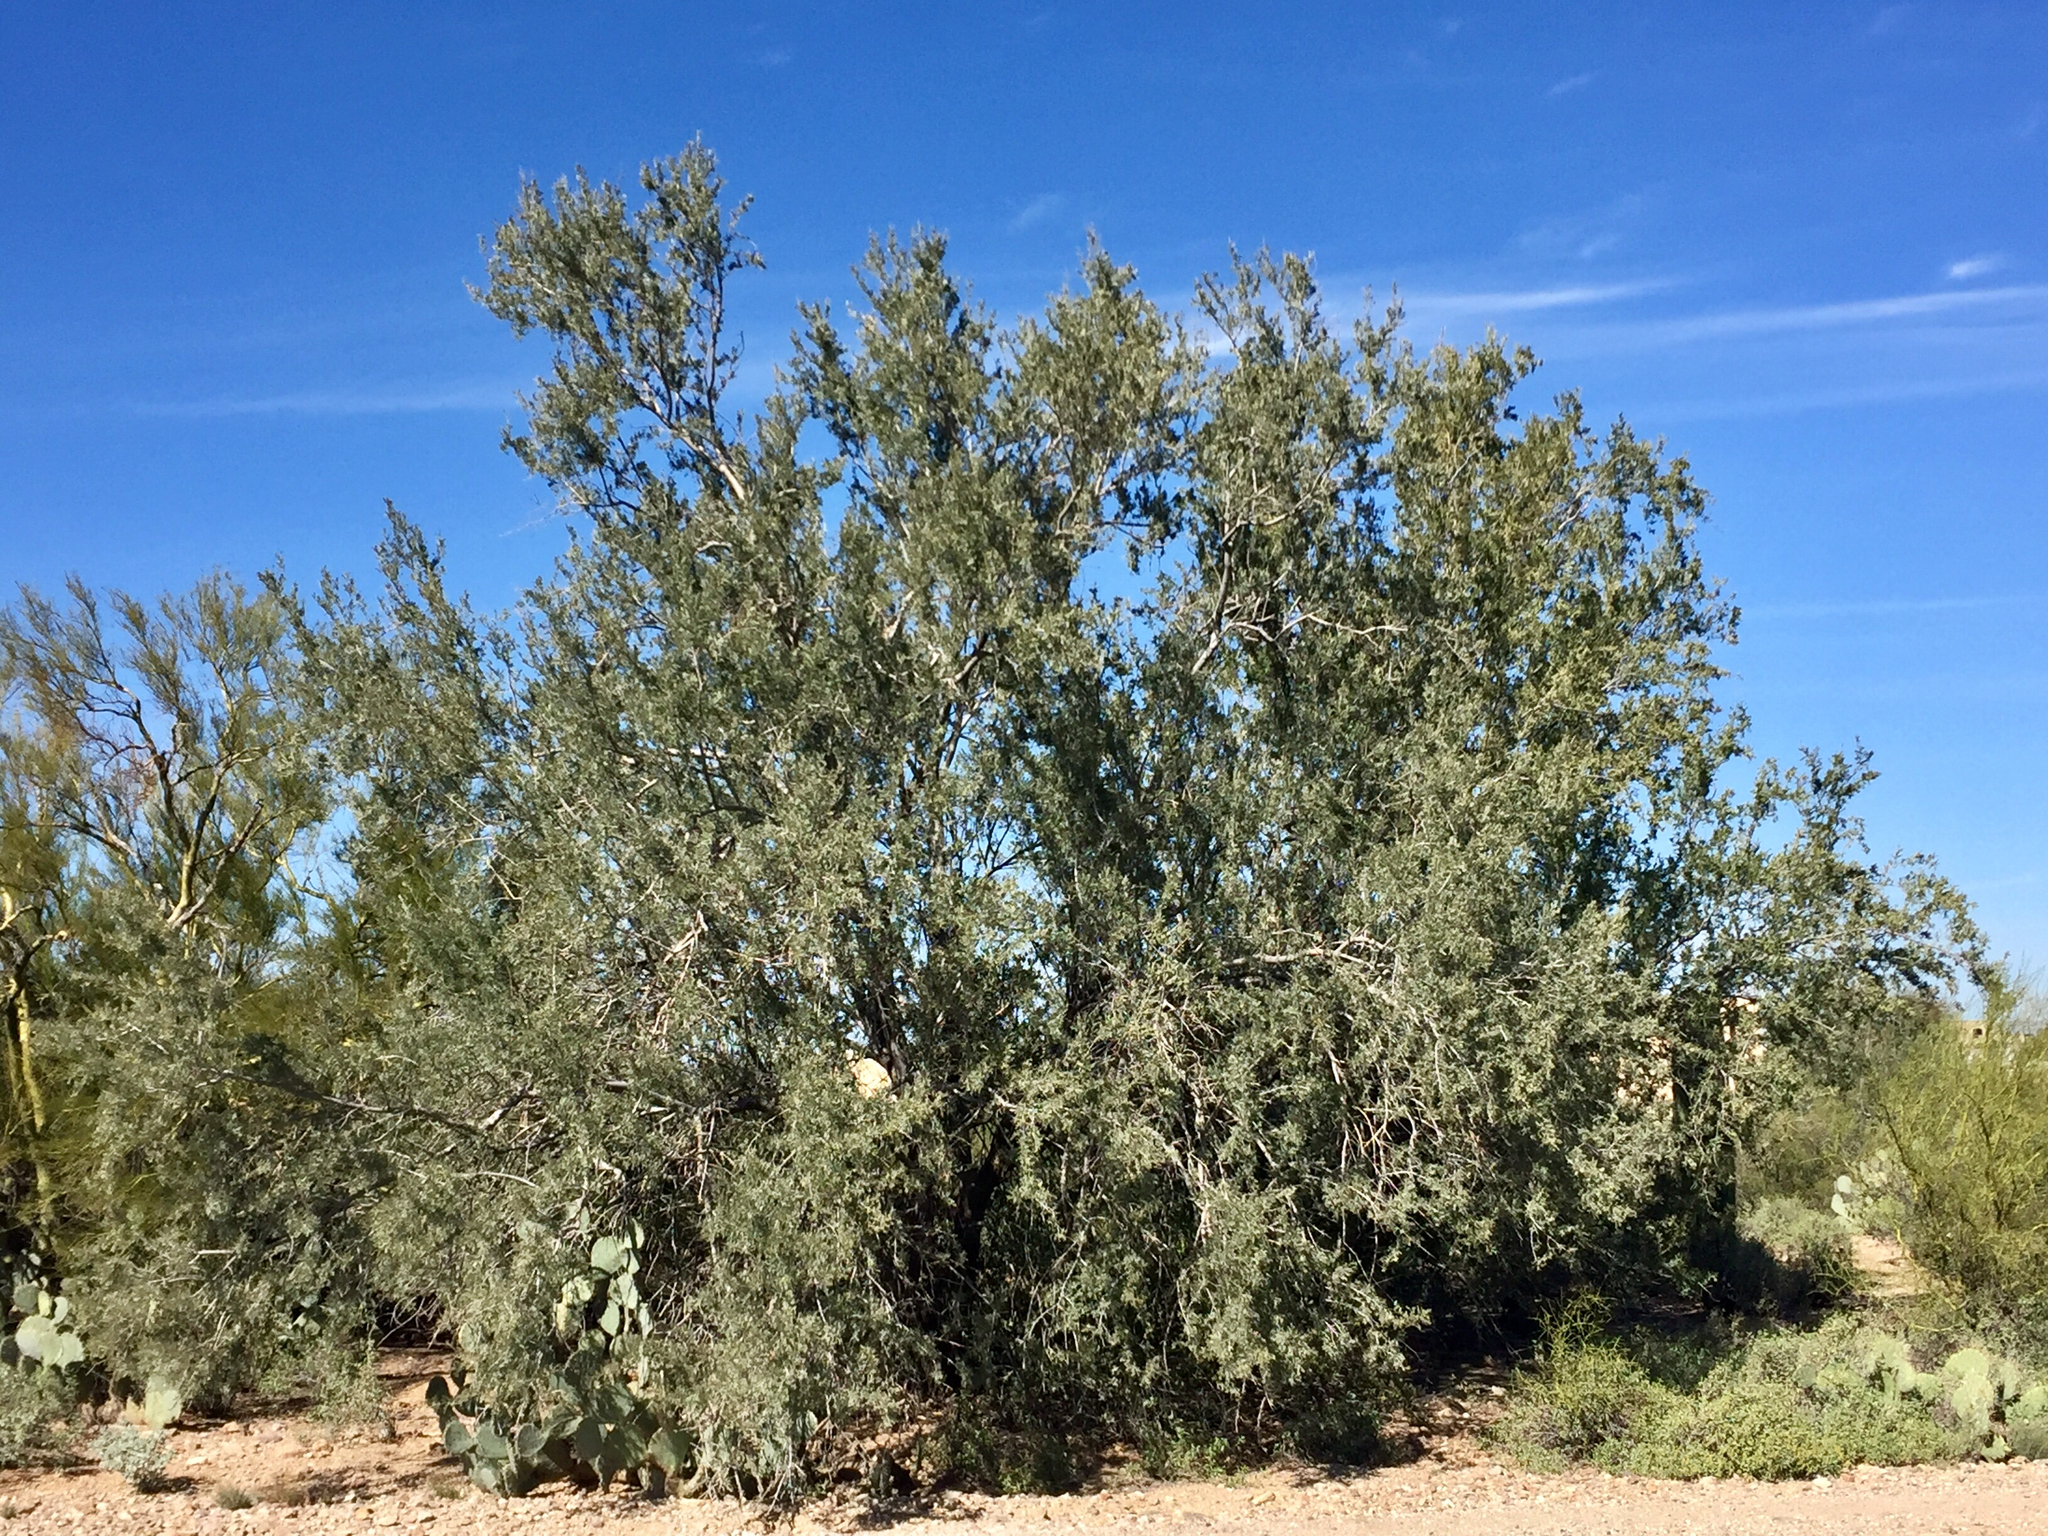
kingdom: Plantae
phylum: Tracheophyta
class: Magnoliopsida
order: Fabales
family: Fabaceae
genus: Olneya
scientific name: Olneya tesota
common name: Desert ironwood
